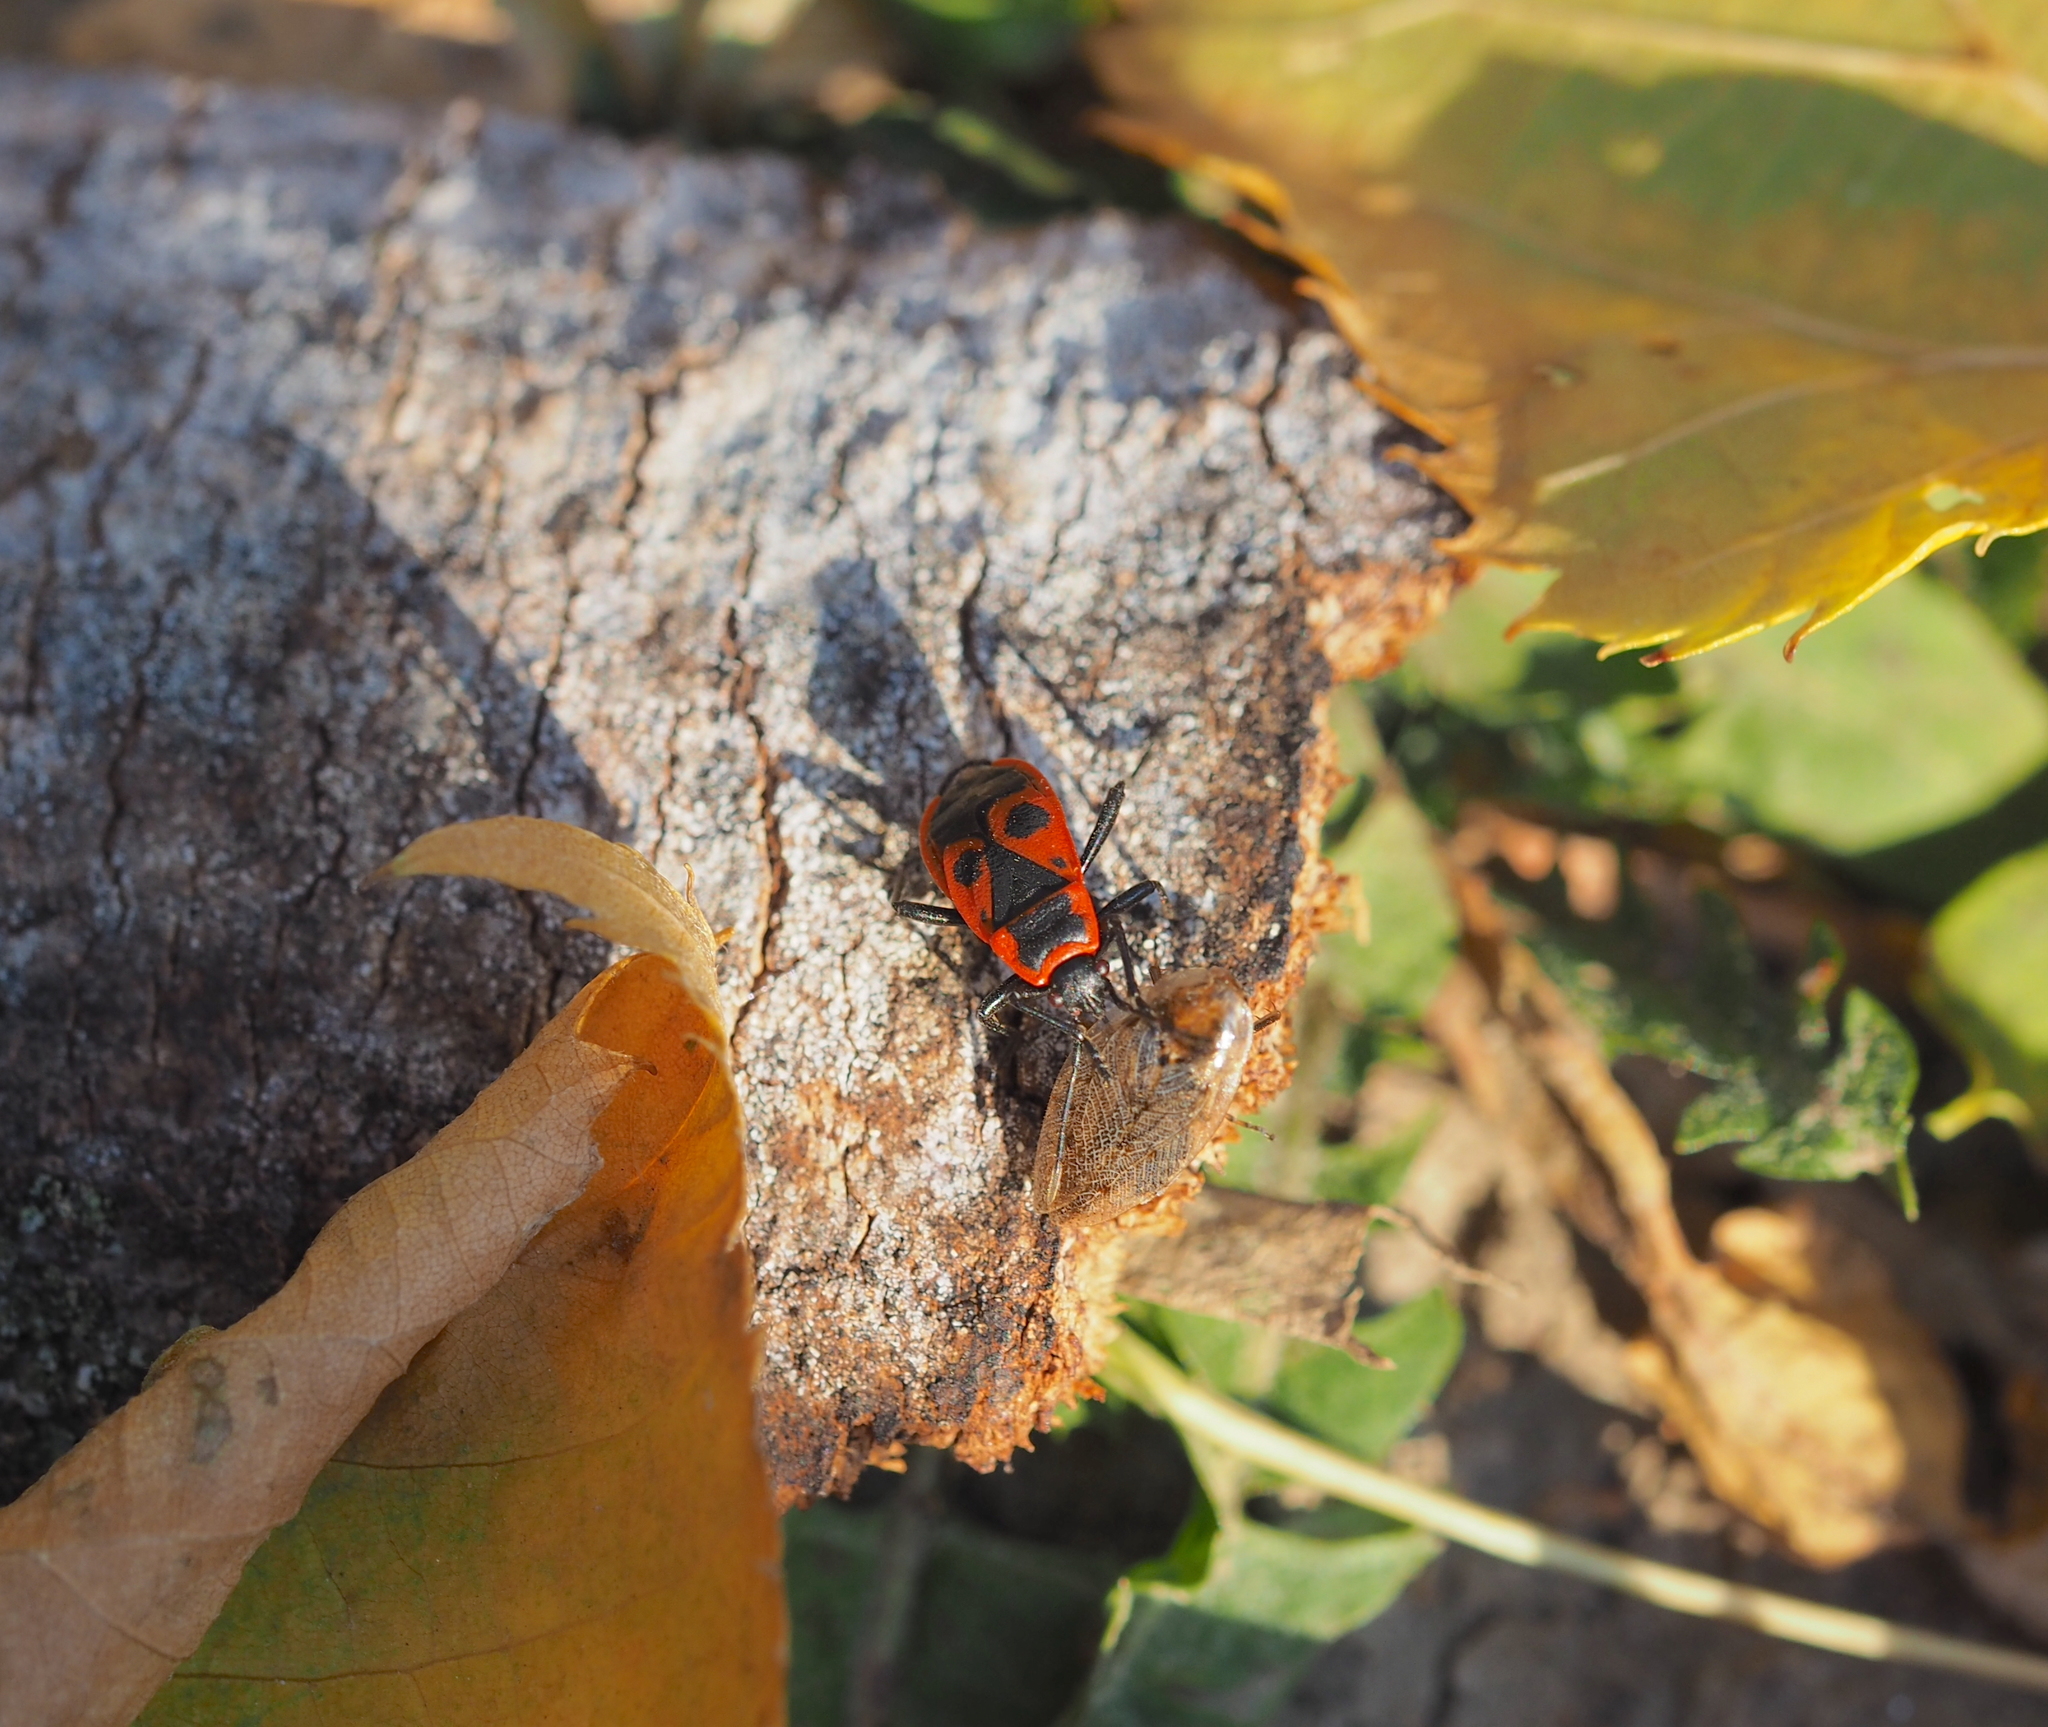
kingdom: Animalia
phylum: Arthropoda
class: Insecta
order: Hemiptera
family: Pyrrhocoridae
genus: Pyrrhocoris
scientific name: Pyrrhocoris apterus
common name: Firebug
